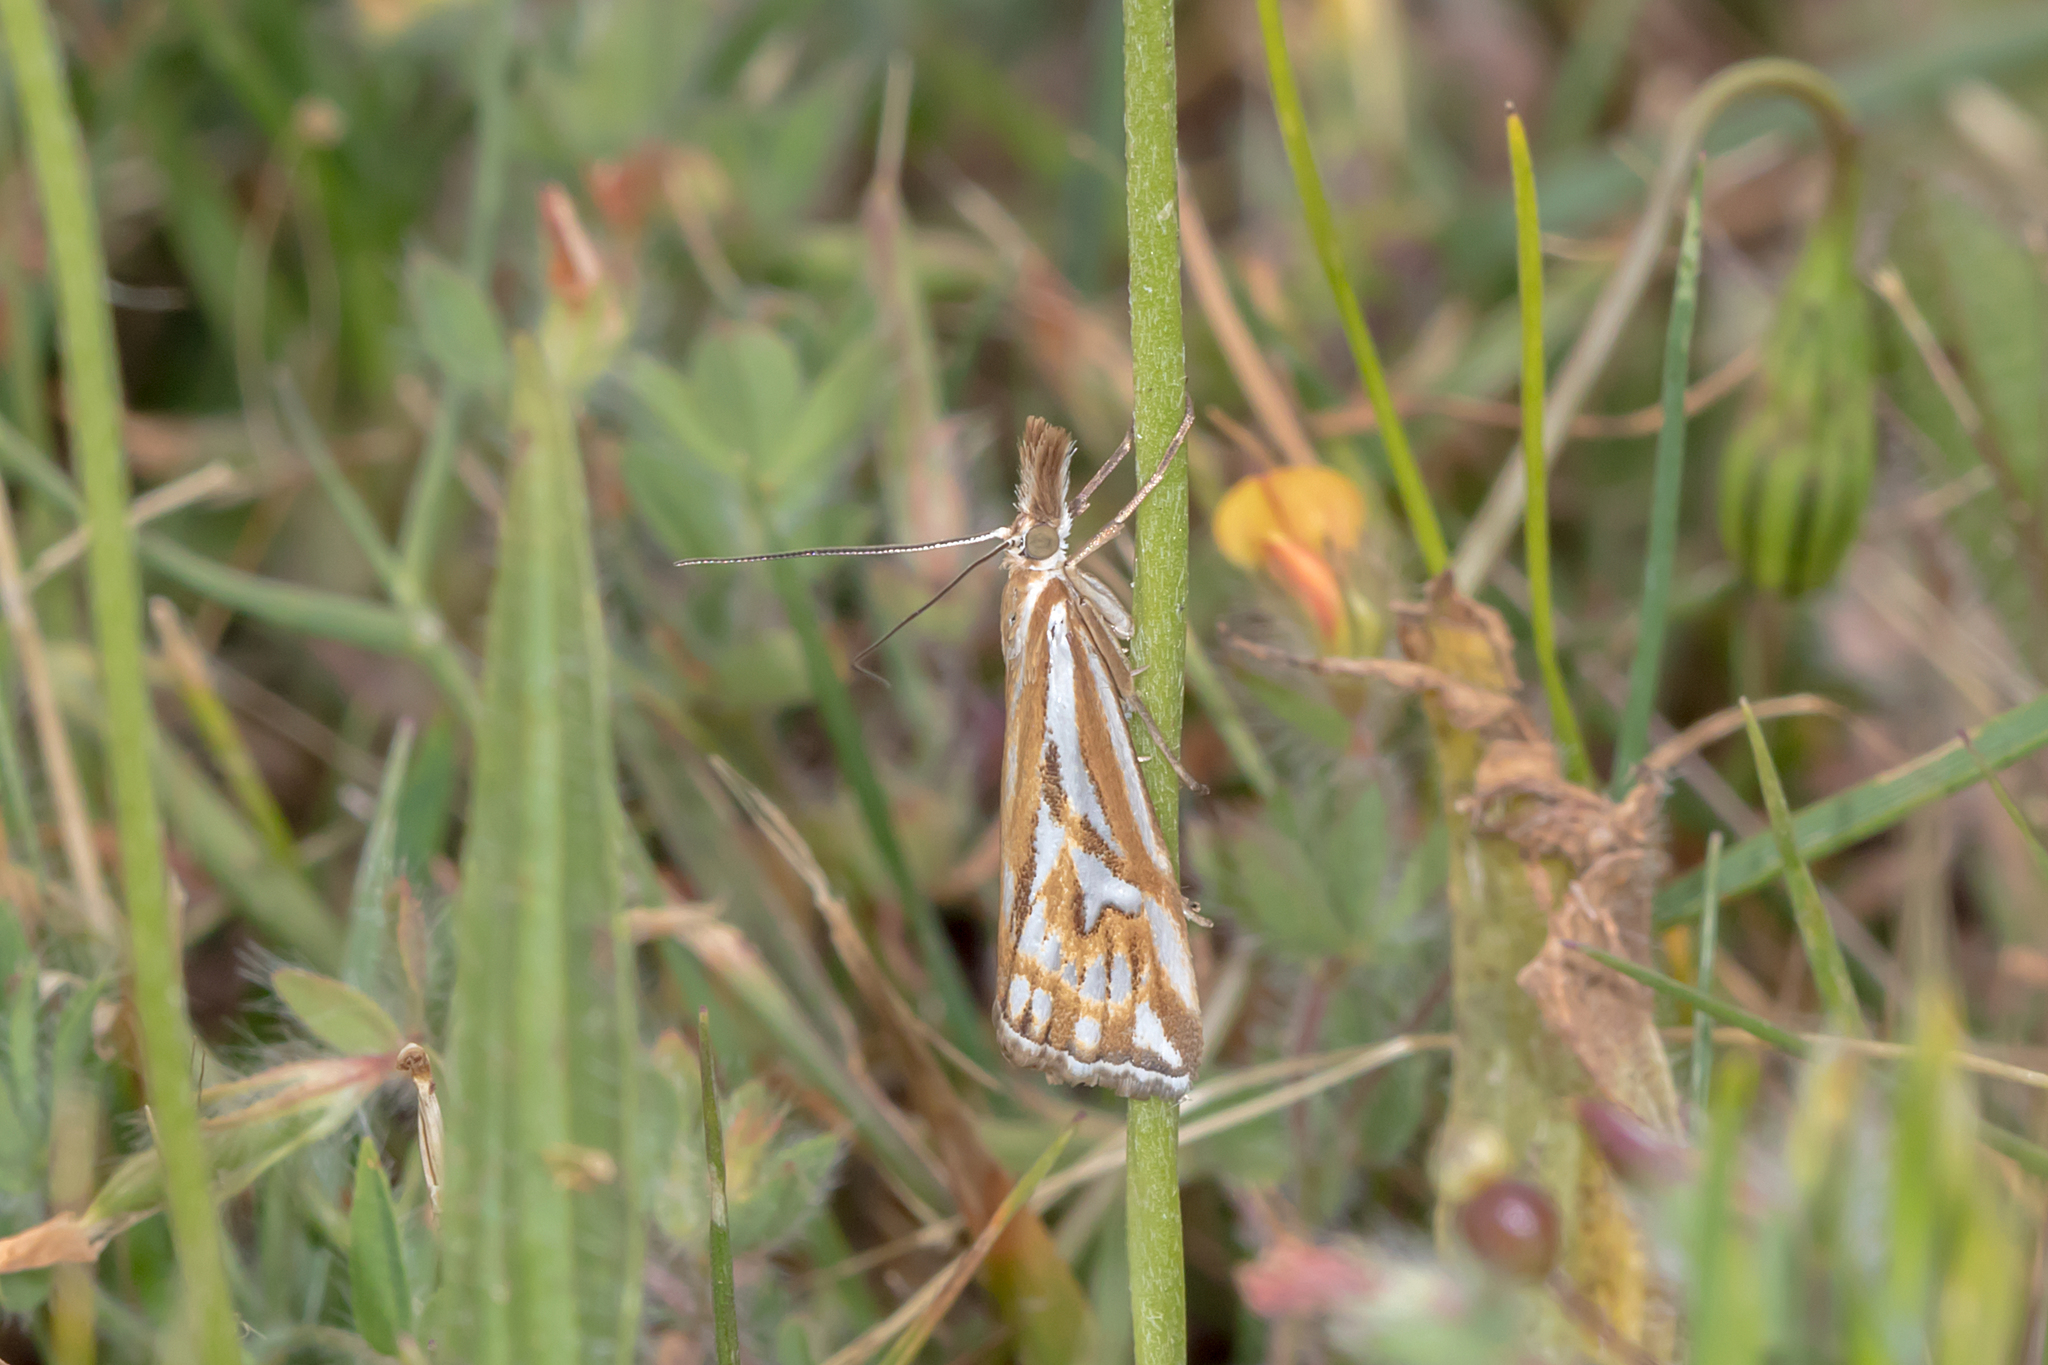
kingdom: Animalia
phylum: Arthropoda
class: Insecta
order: Lepidoptera
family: Crambidae
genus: Hednota
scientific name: Hednota pleniferellus
